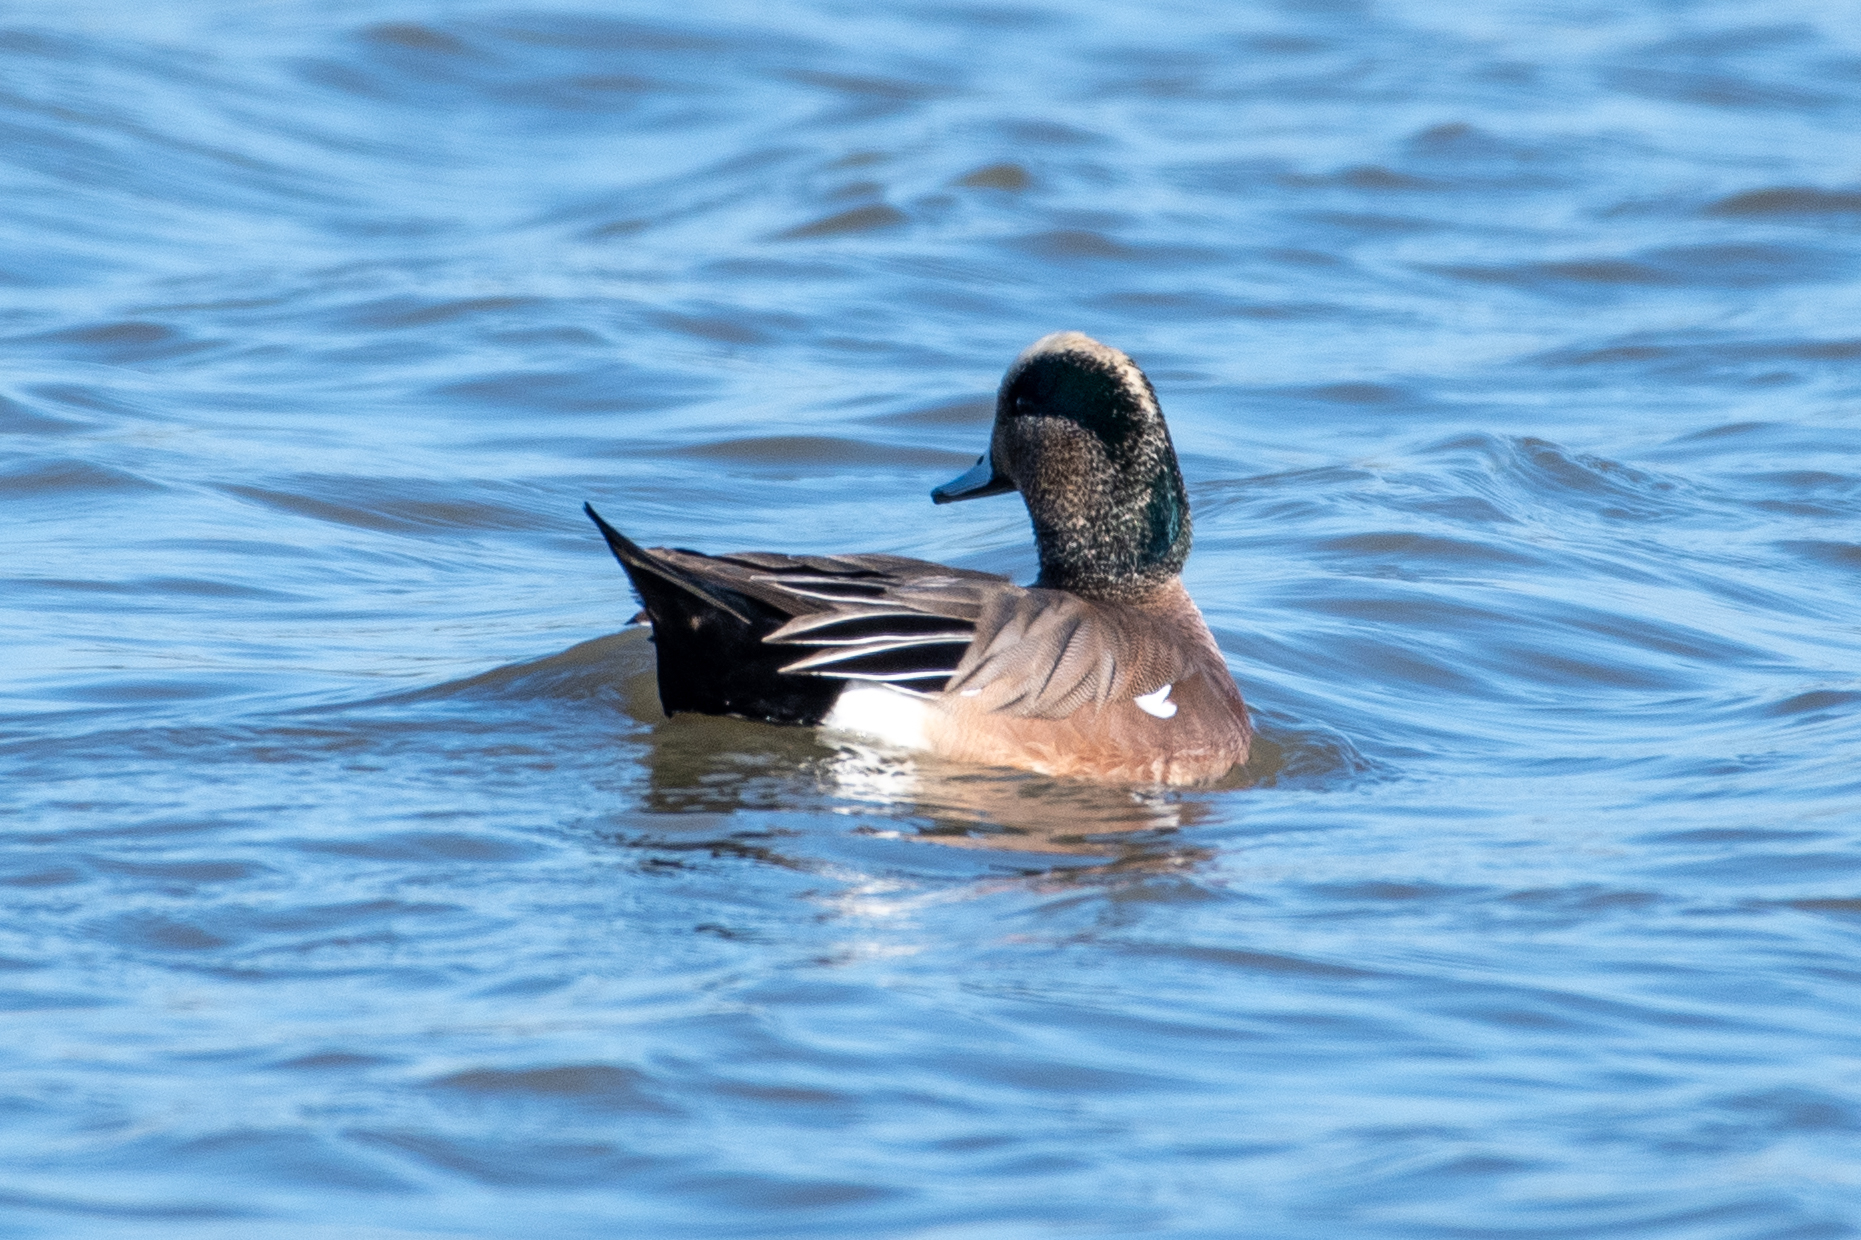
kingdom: Animalia
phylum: Chordata
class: Aves
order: Anseriformes
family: Anatidae
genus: Mareca
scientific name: Mareca americana
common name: American wigeon
